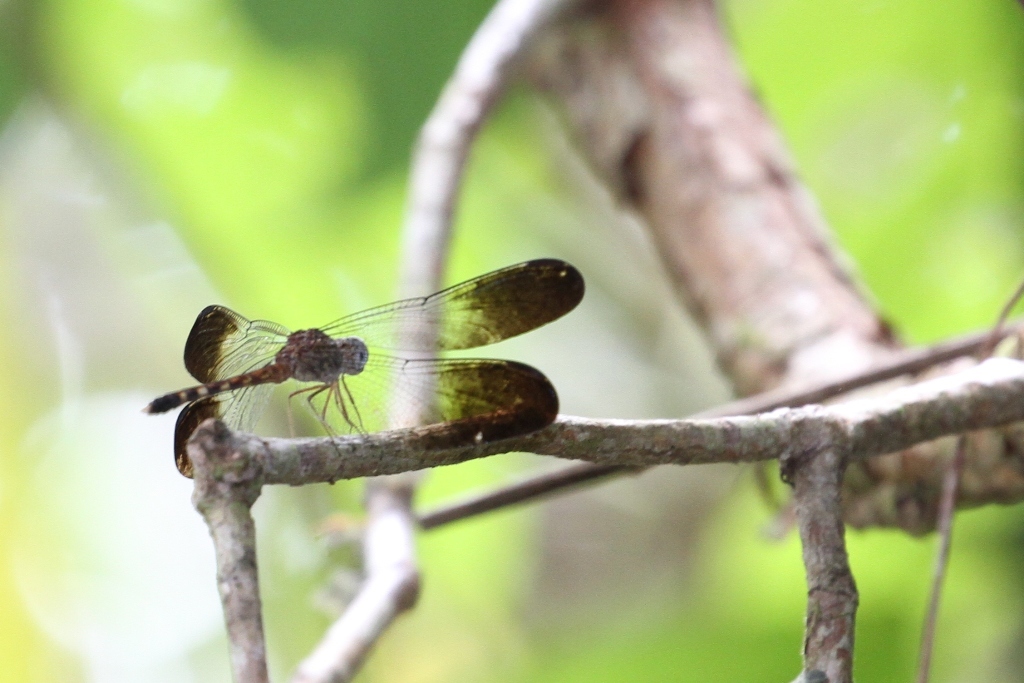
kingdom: Animalia
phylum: Arthropoda
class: Insecta
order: Odonata
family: Libellulidae
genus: Uracis
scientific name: Uracis fastigiata
